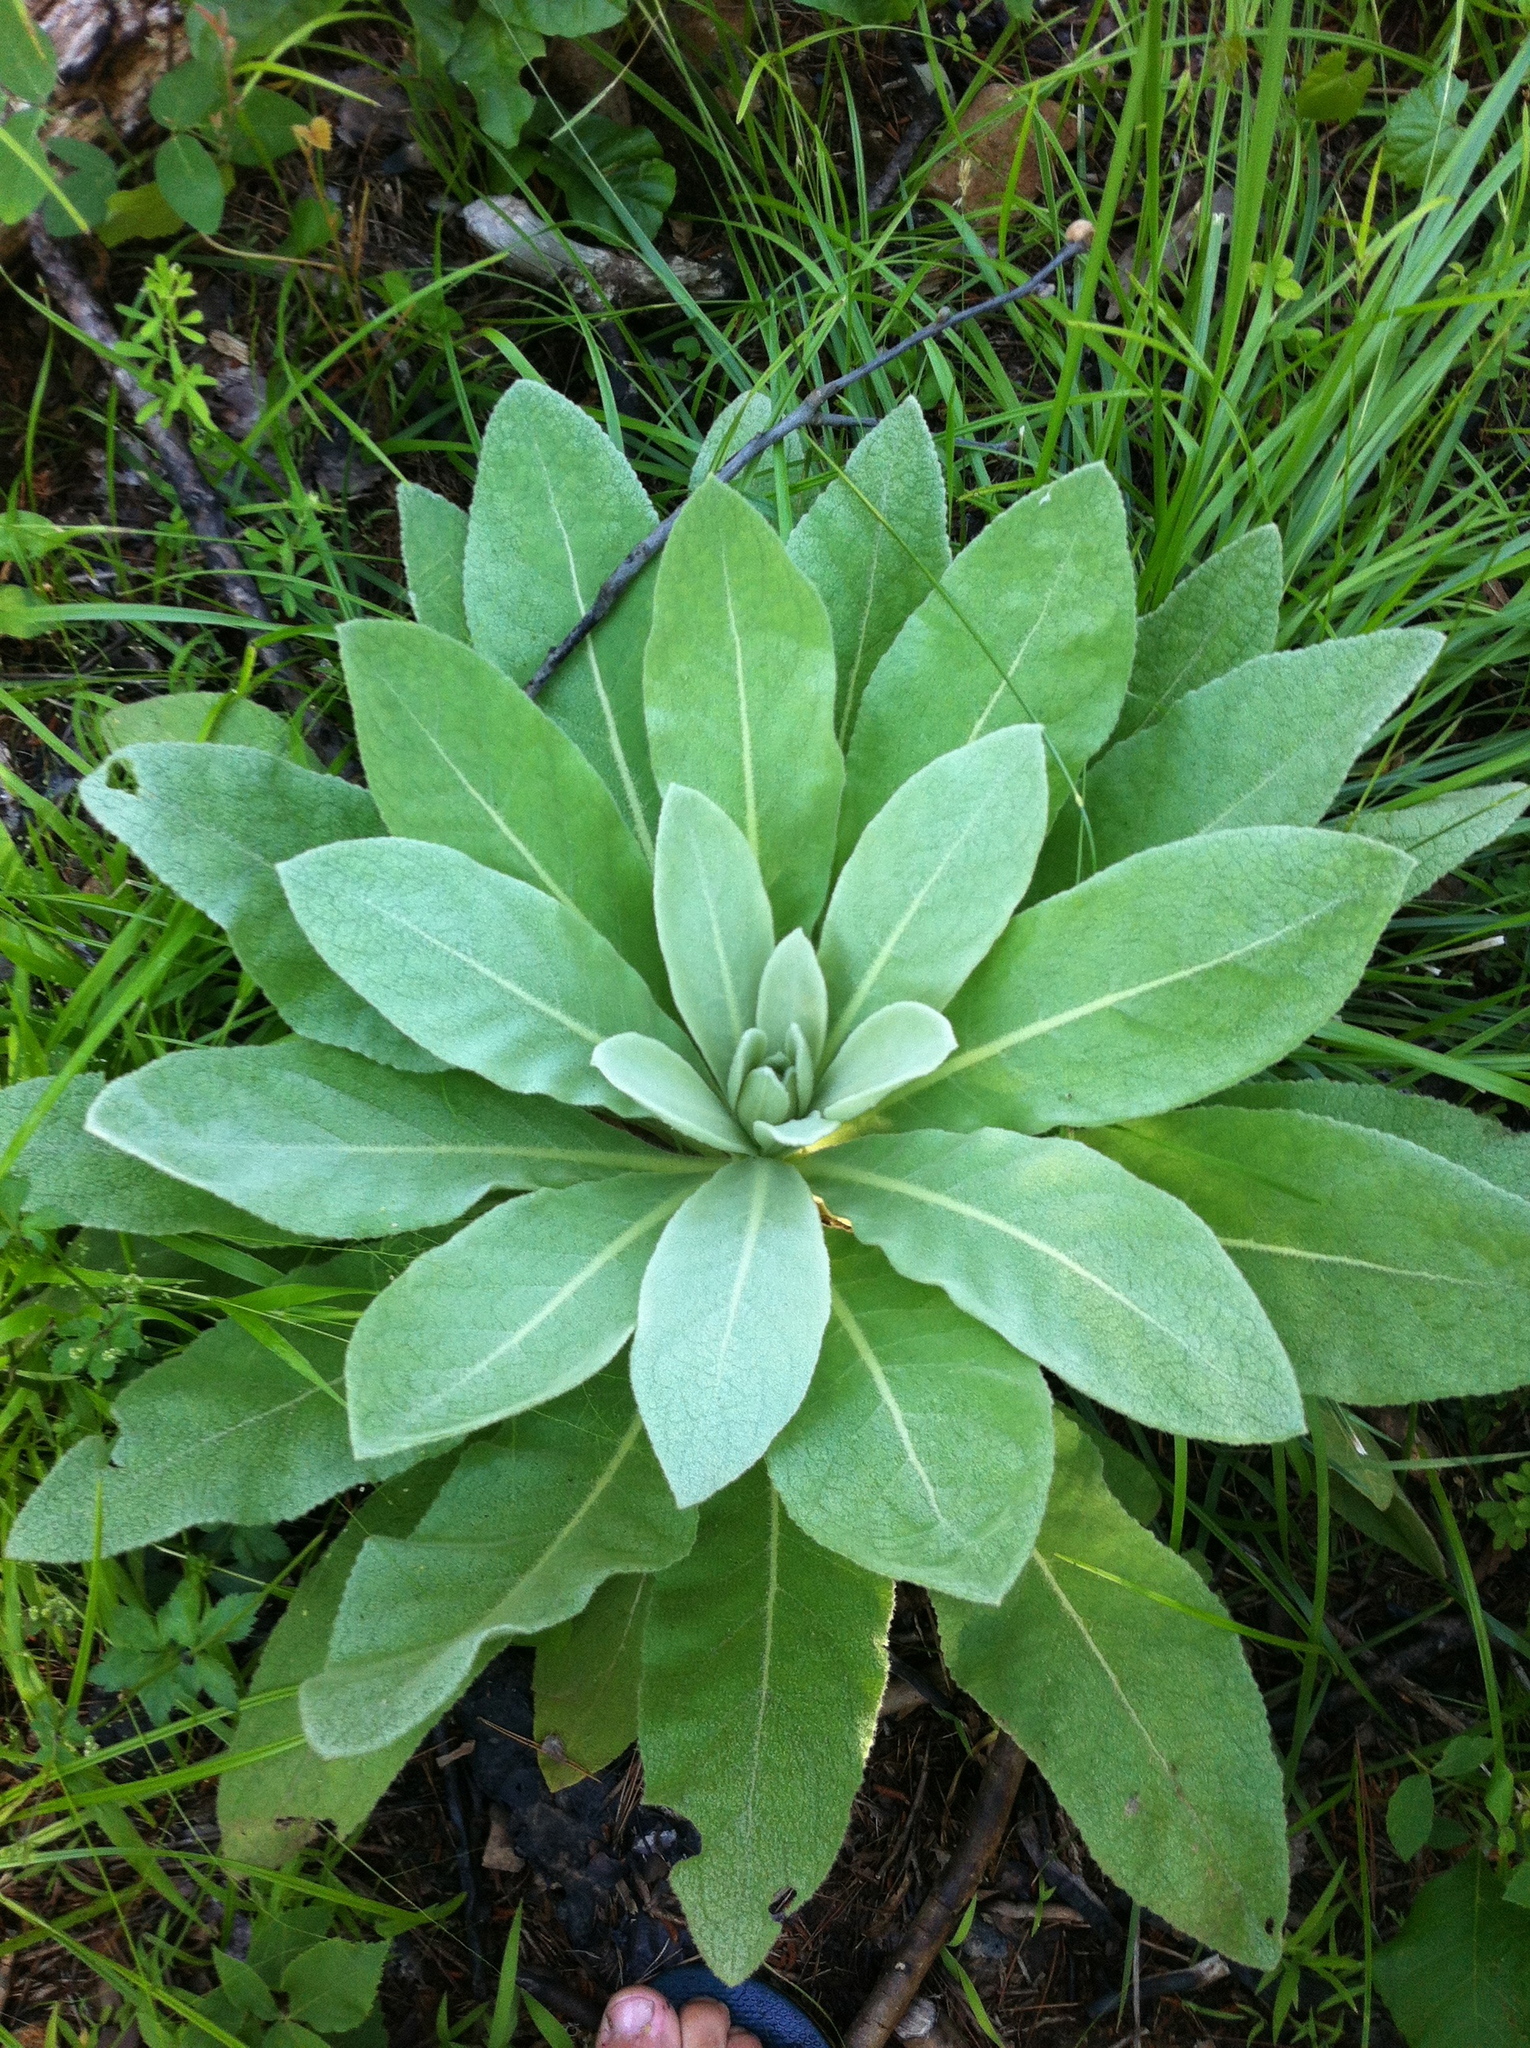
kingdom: Plantae
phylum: Tracheophyta
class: Magnoliopsida
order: Lamiales
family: Scrophulariaceae
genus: Verbascum
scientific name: Verbascum thapsus
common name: Common mullein
